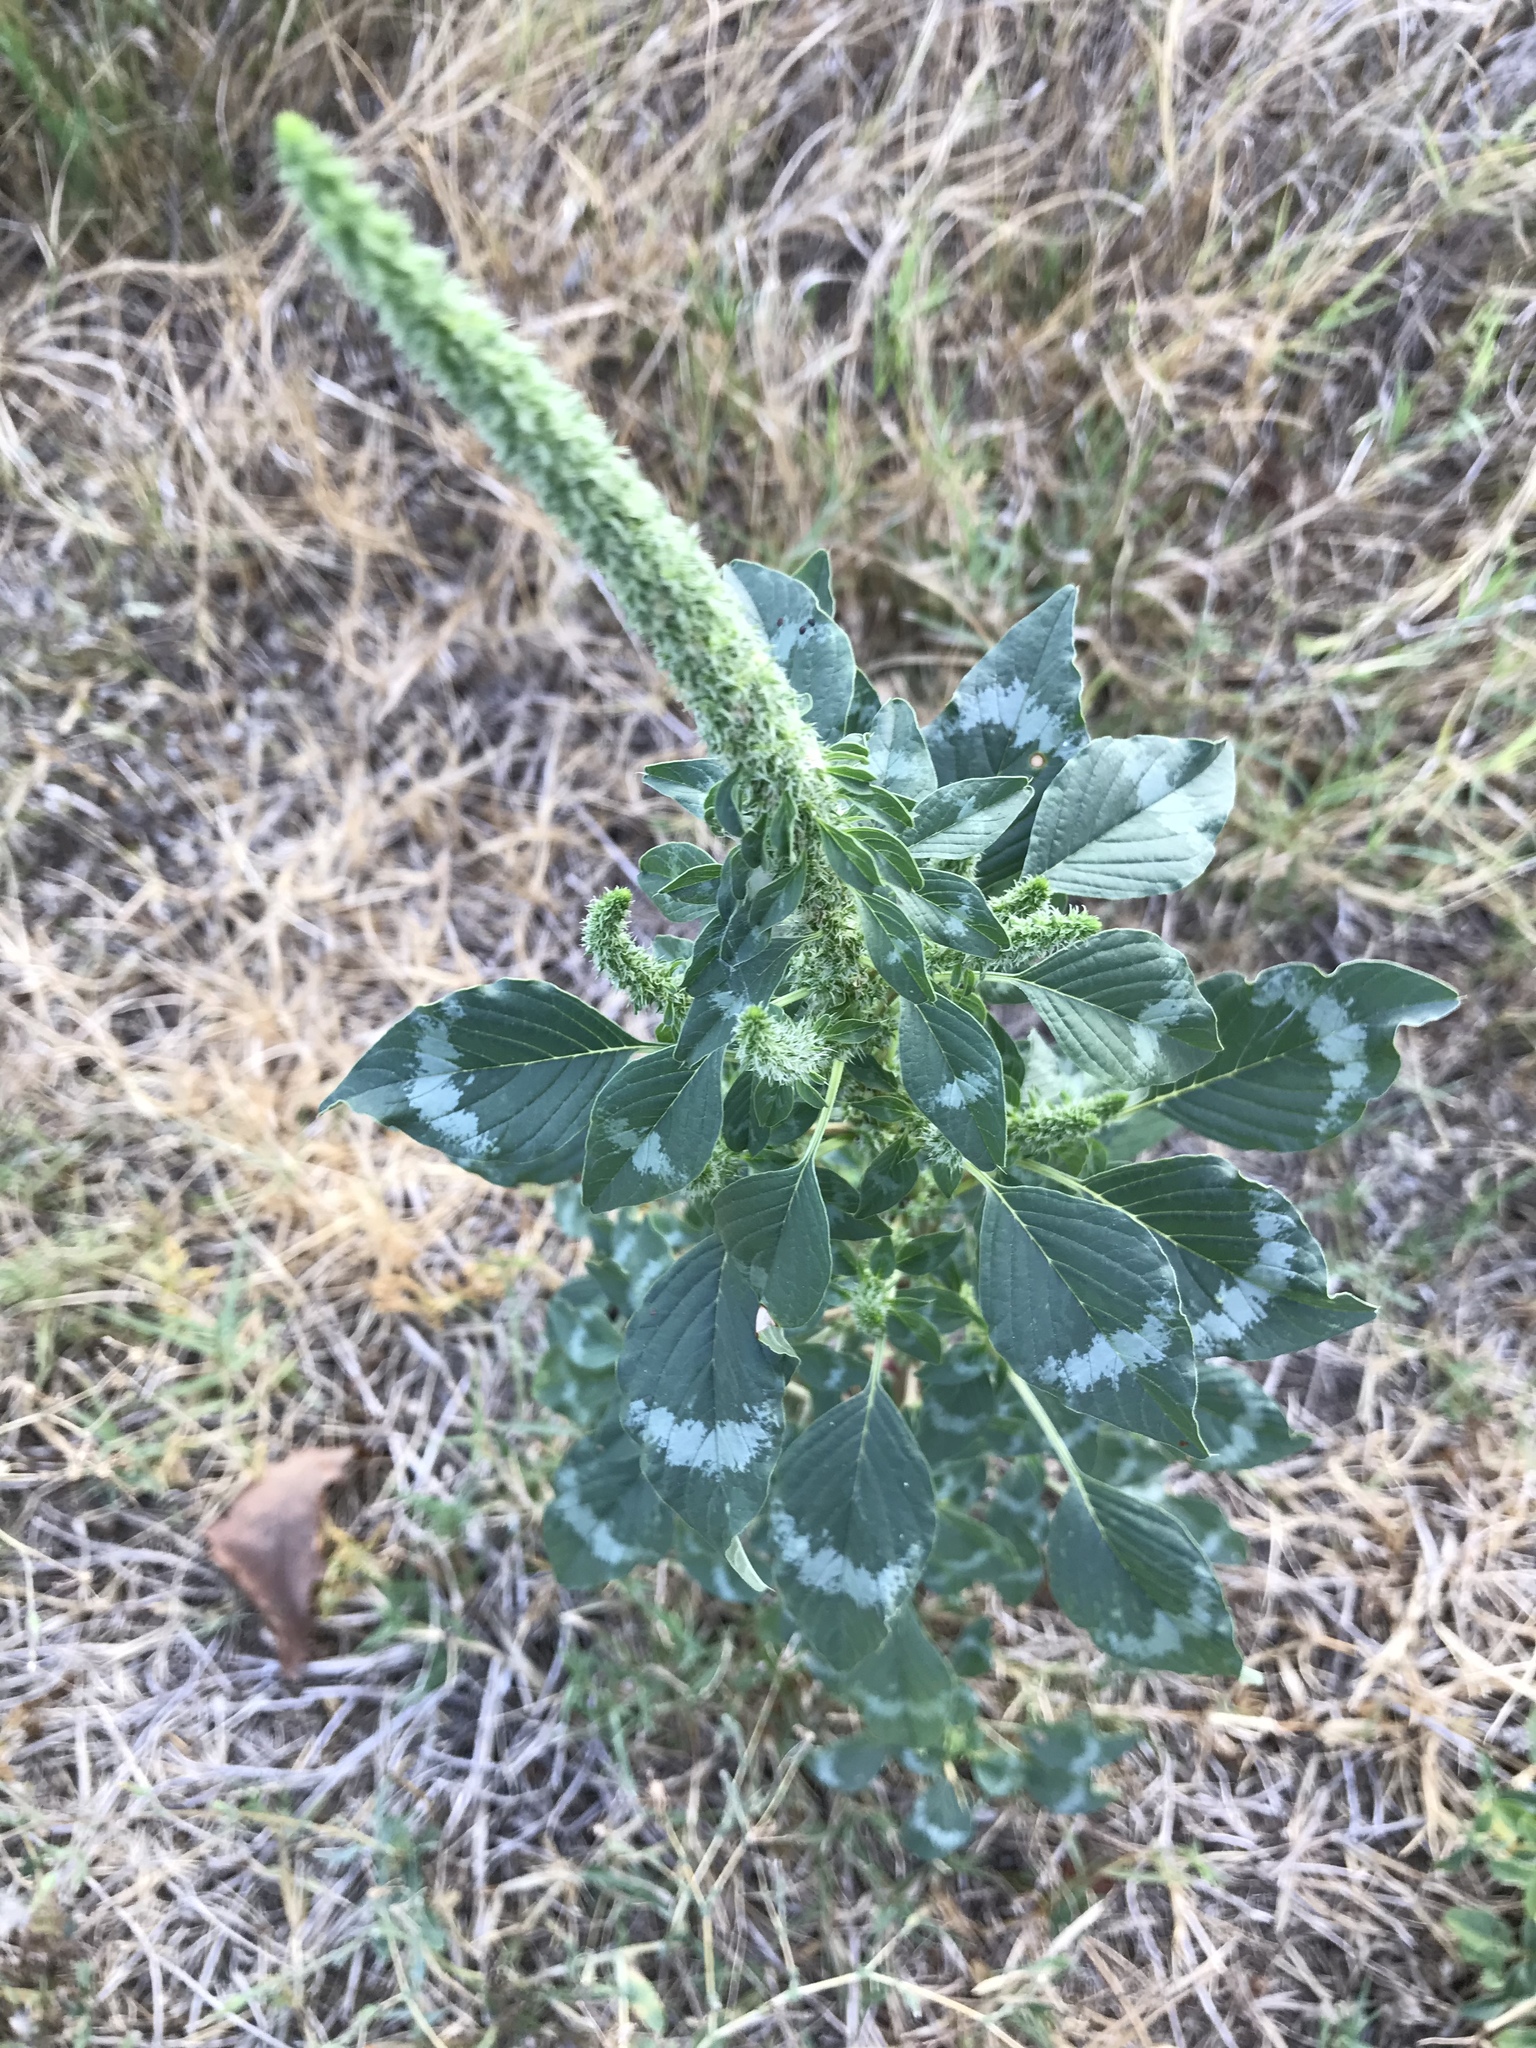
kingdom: Plantae
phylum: Tracheophyta
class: Magnoliopsida
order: Caryophyllales
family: Amaranthaceae
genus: Amaranthus
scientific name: Amaranthus palmeri
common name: Dioecious amaranth
